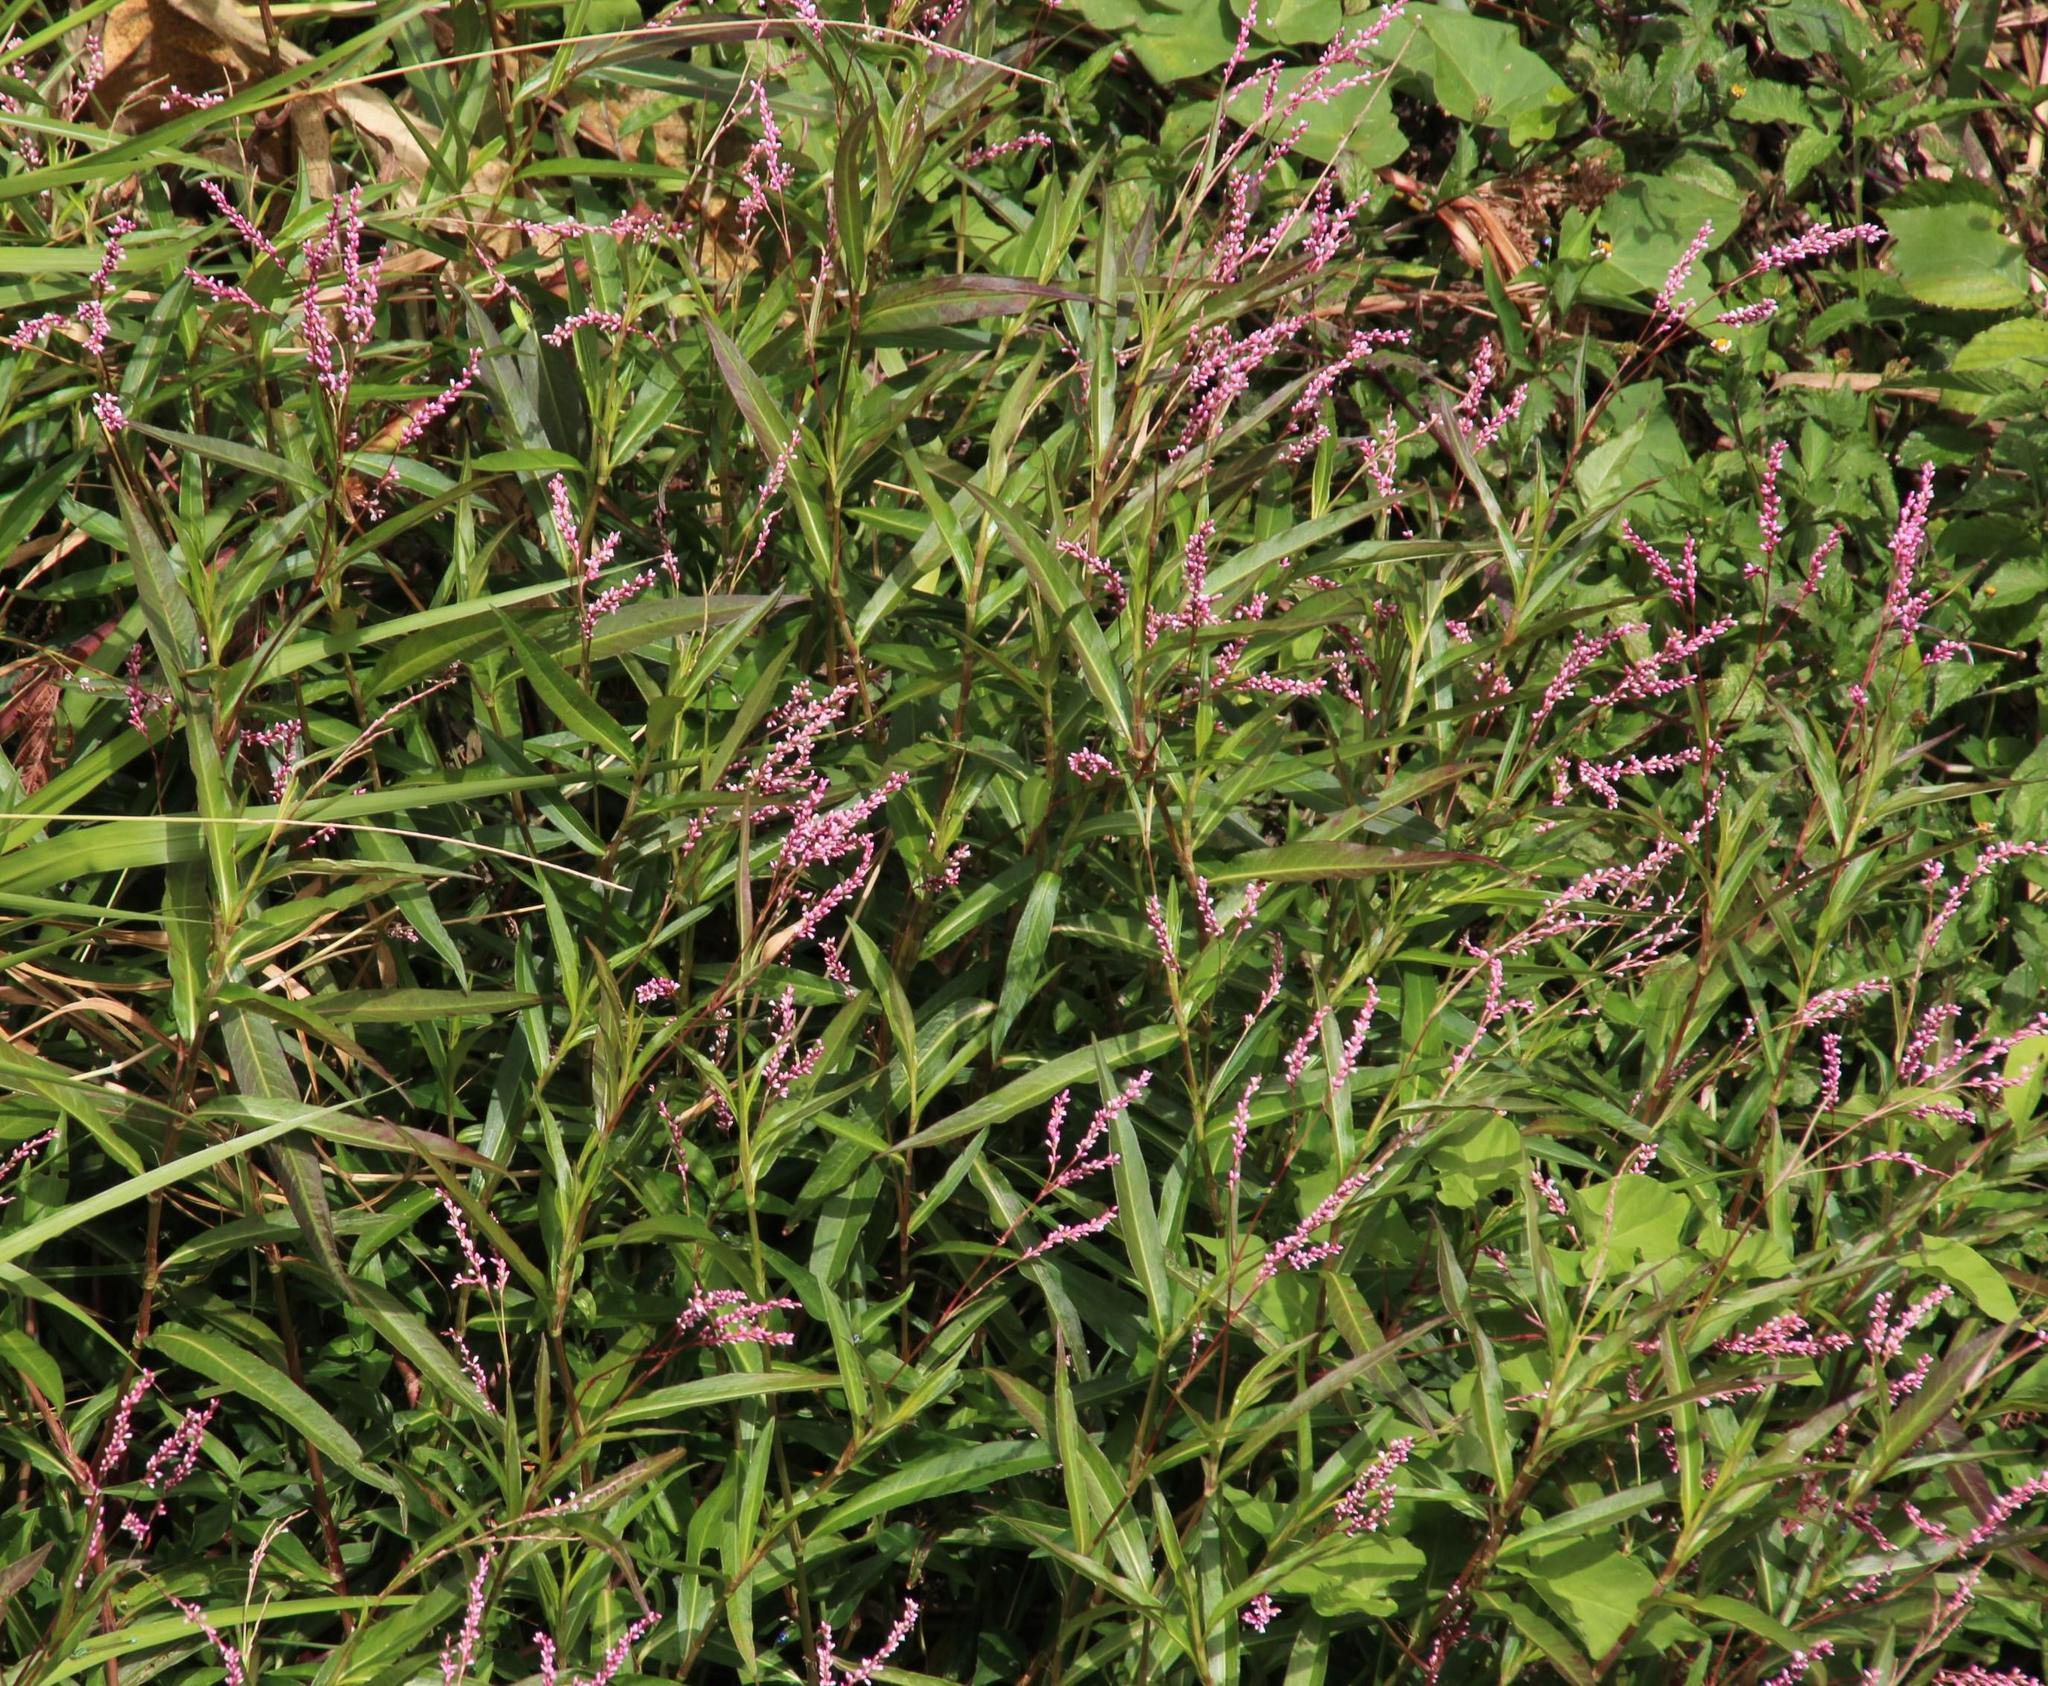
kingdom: Plantae
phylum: Tracheophyta
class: Magnoliopsida
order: Caryophyllales
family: Polygonaceae
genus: Persicaria
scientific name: Persicaria maculosa
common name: Redshank
